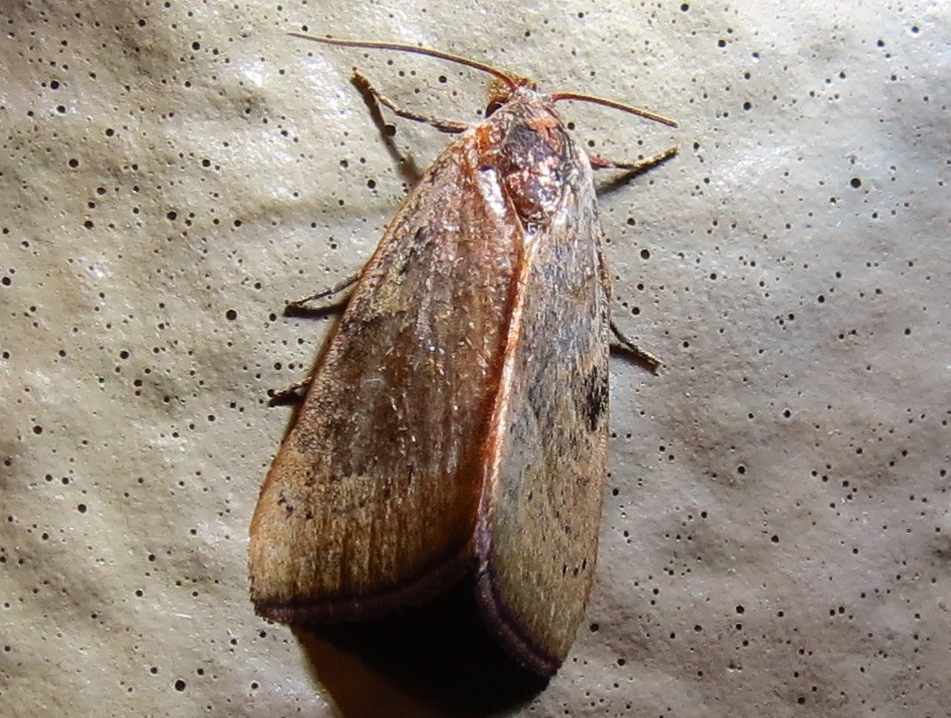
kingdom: Animalia
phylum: Arthropoda
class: Insecta
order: Lepidoptera
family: Noctuidae
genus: Galgula
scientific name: Galgula partita
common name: Wedgeling
